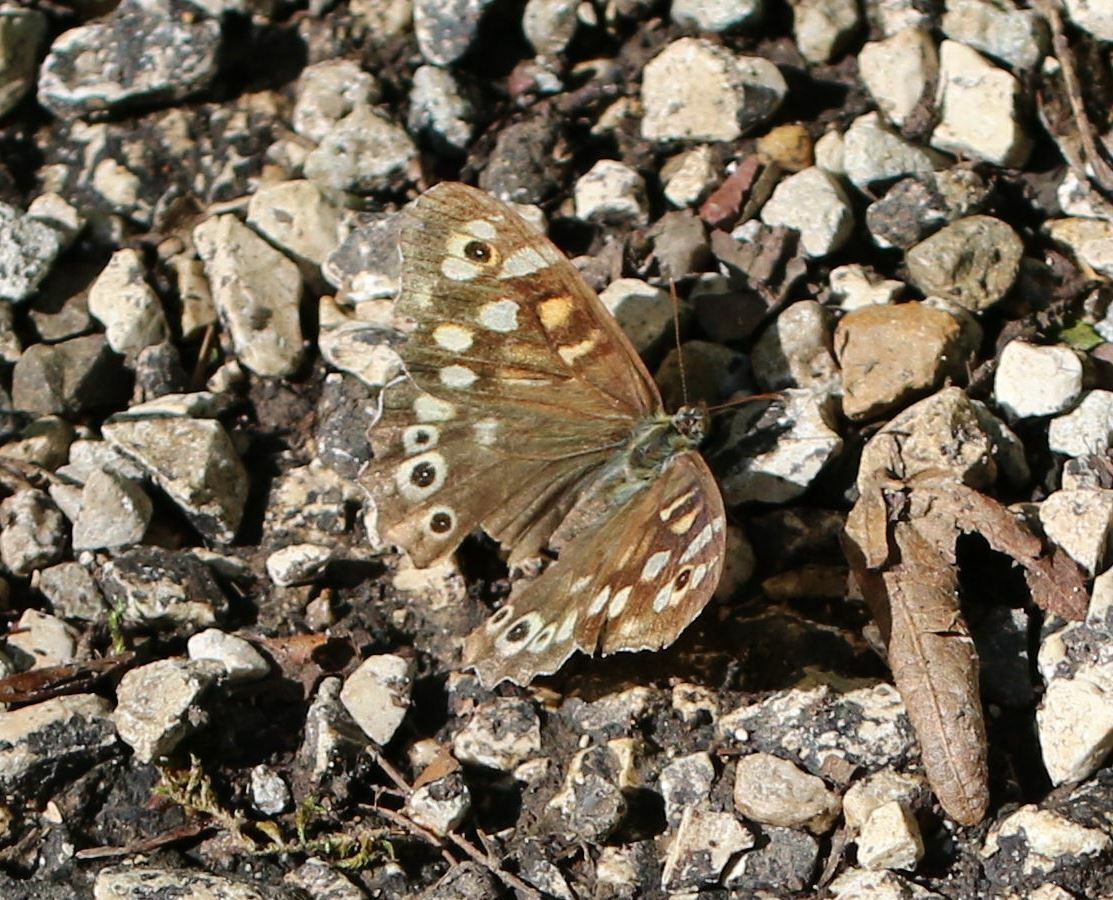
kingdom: Animalia
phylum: Arthropoda
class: Insecta
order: Lepidoptera
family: Nymphalidae
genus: Pararge
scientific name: Pararge aegeria
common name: Speckled wood
